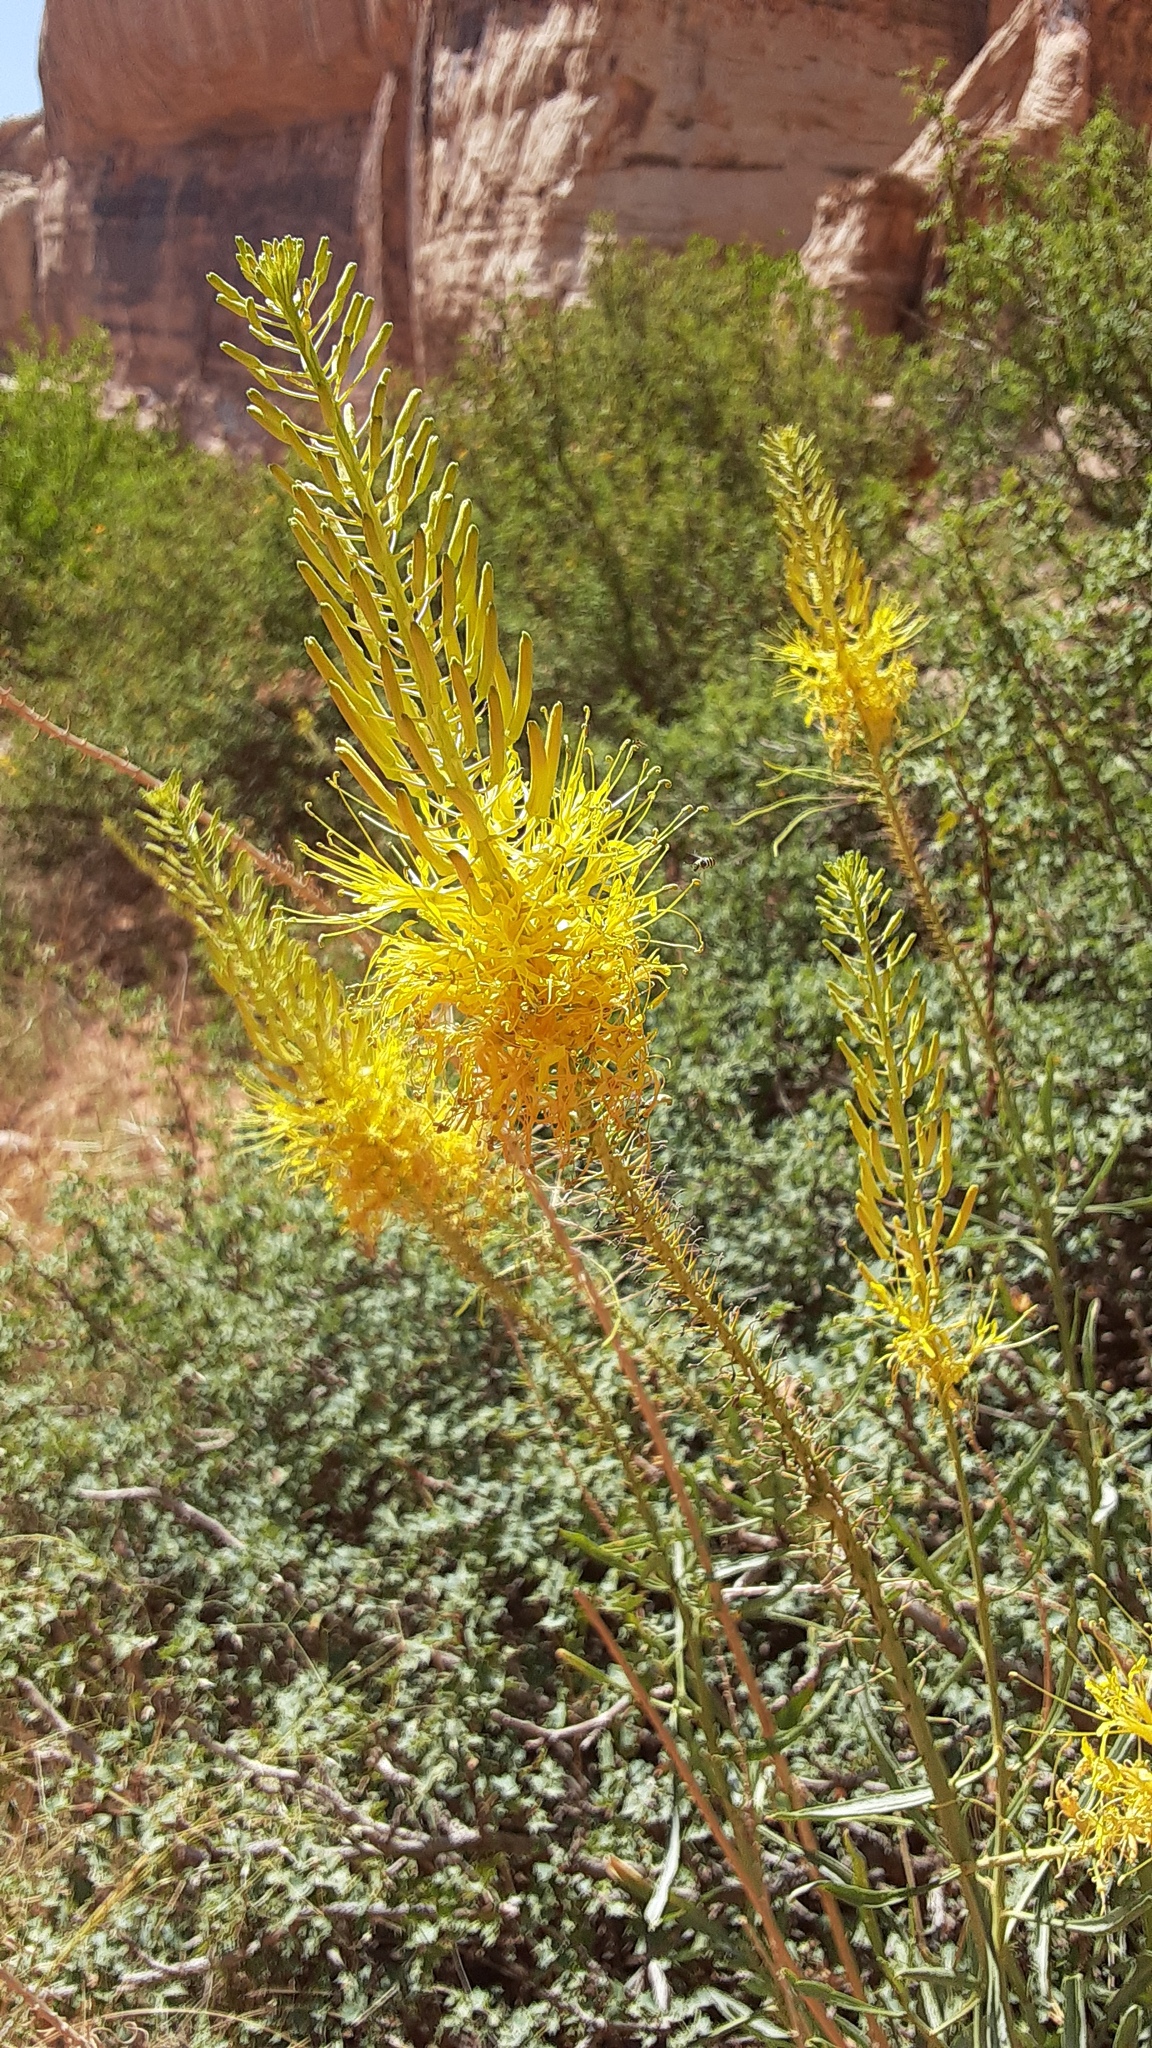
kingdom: Plantae
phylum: Tracheophyta
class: Magnoliopsida
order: Brassicales
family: Brassicaceae
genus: Stanleya
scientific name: Stanleya pinnata
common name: Prince's-plume
